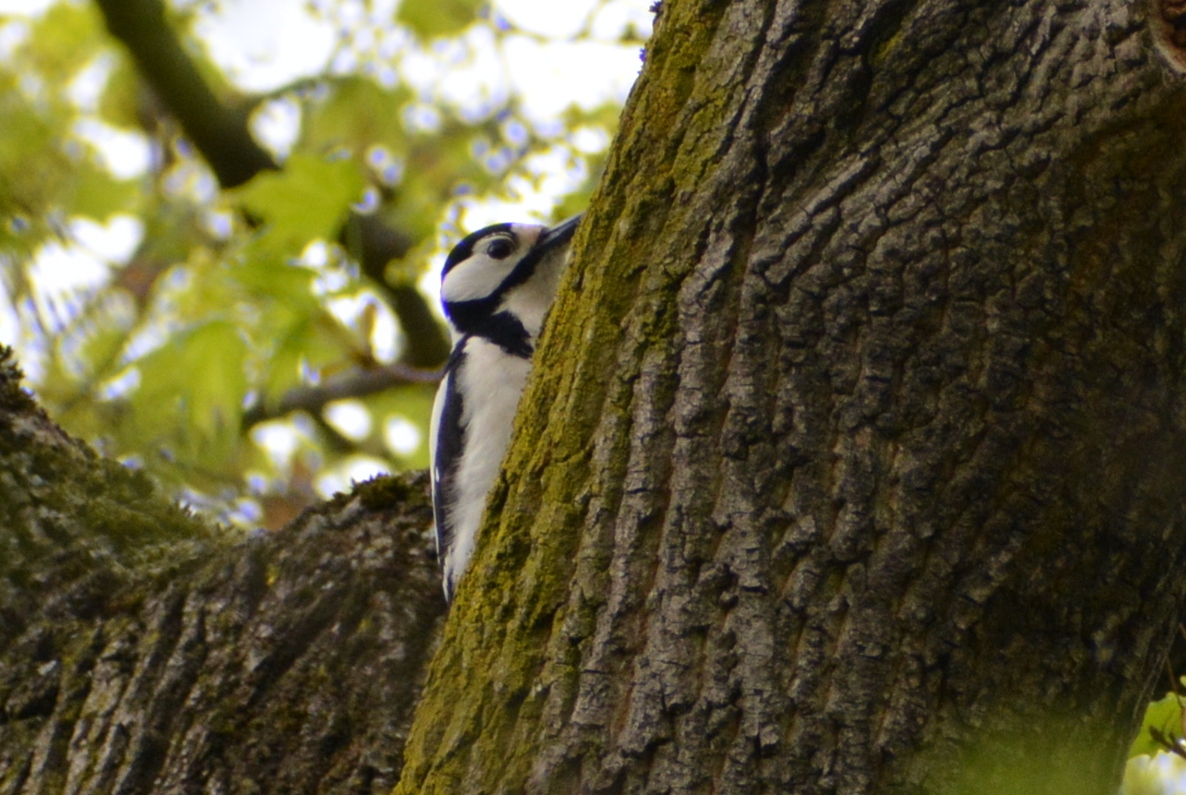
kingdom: Animalia
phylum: Chordata
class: Aves
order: Piciformes
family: Picidae
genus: Dendrocopos
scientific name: Dendrocopos major
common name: Great spotted woodpecker
